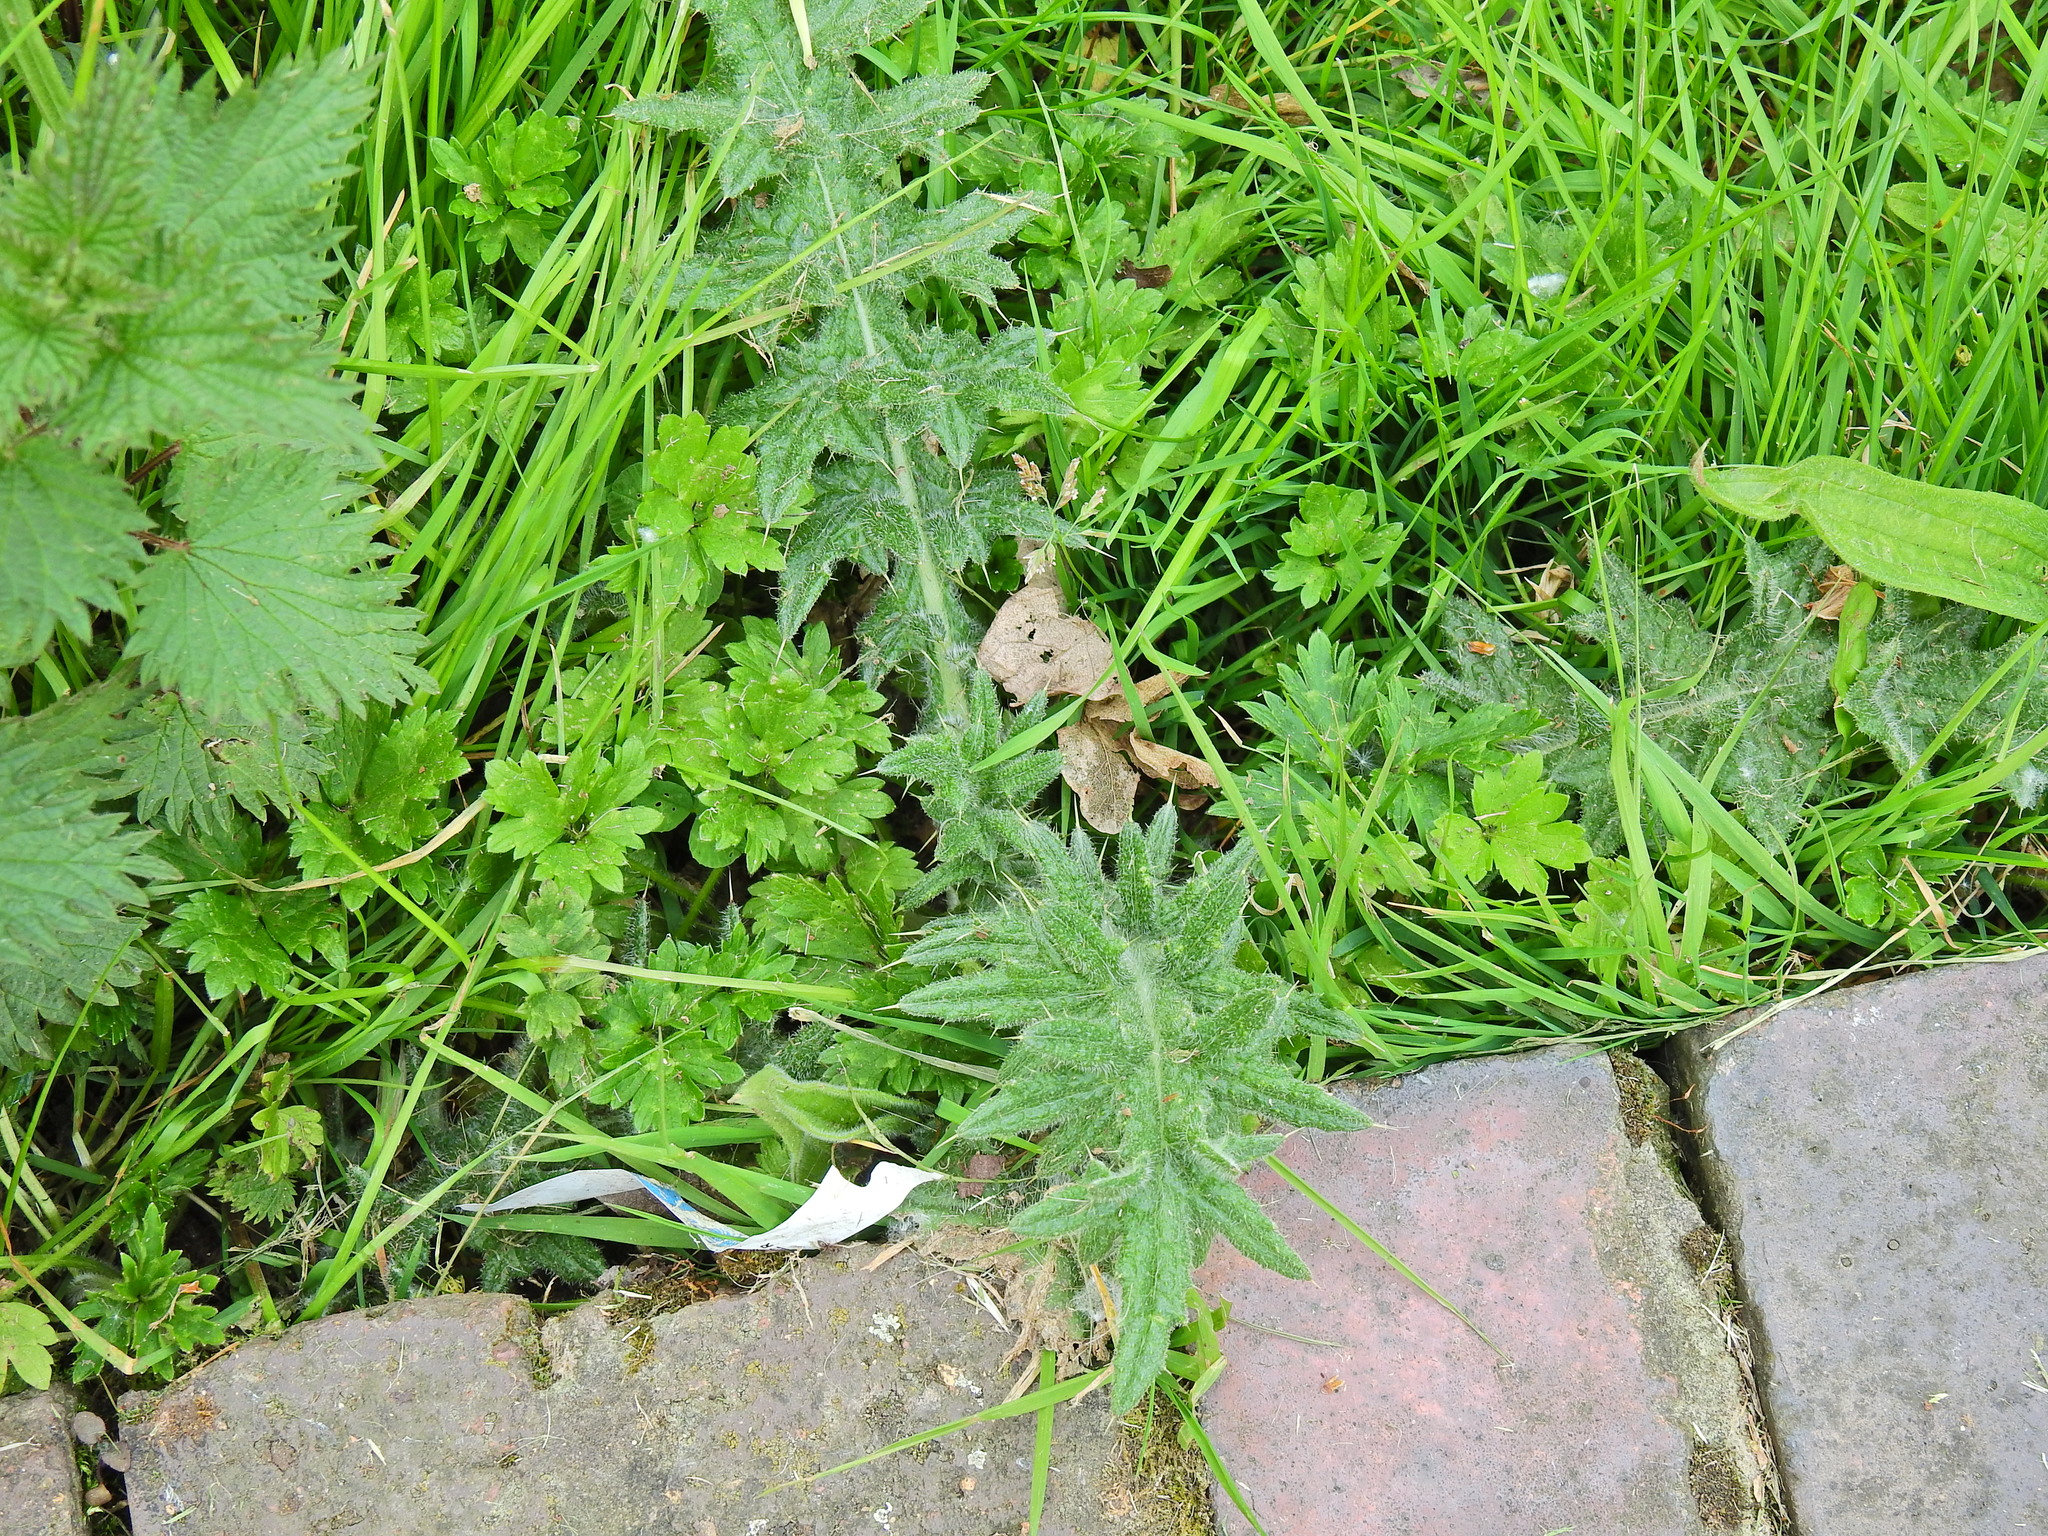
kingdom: Plantae
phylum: Tracheophyta
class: Magnoliopsida
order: Asterales
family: Asteraceae
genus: Cirsium
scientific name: Cirsium vulgare
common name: Bull thistle
